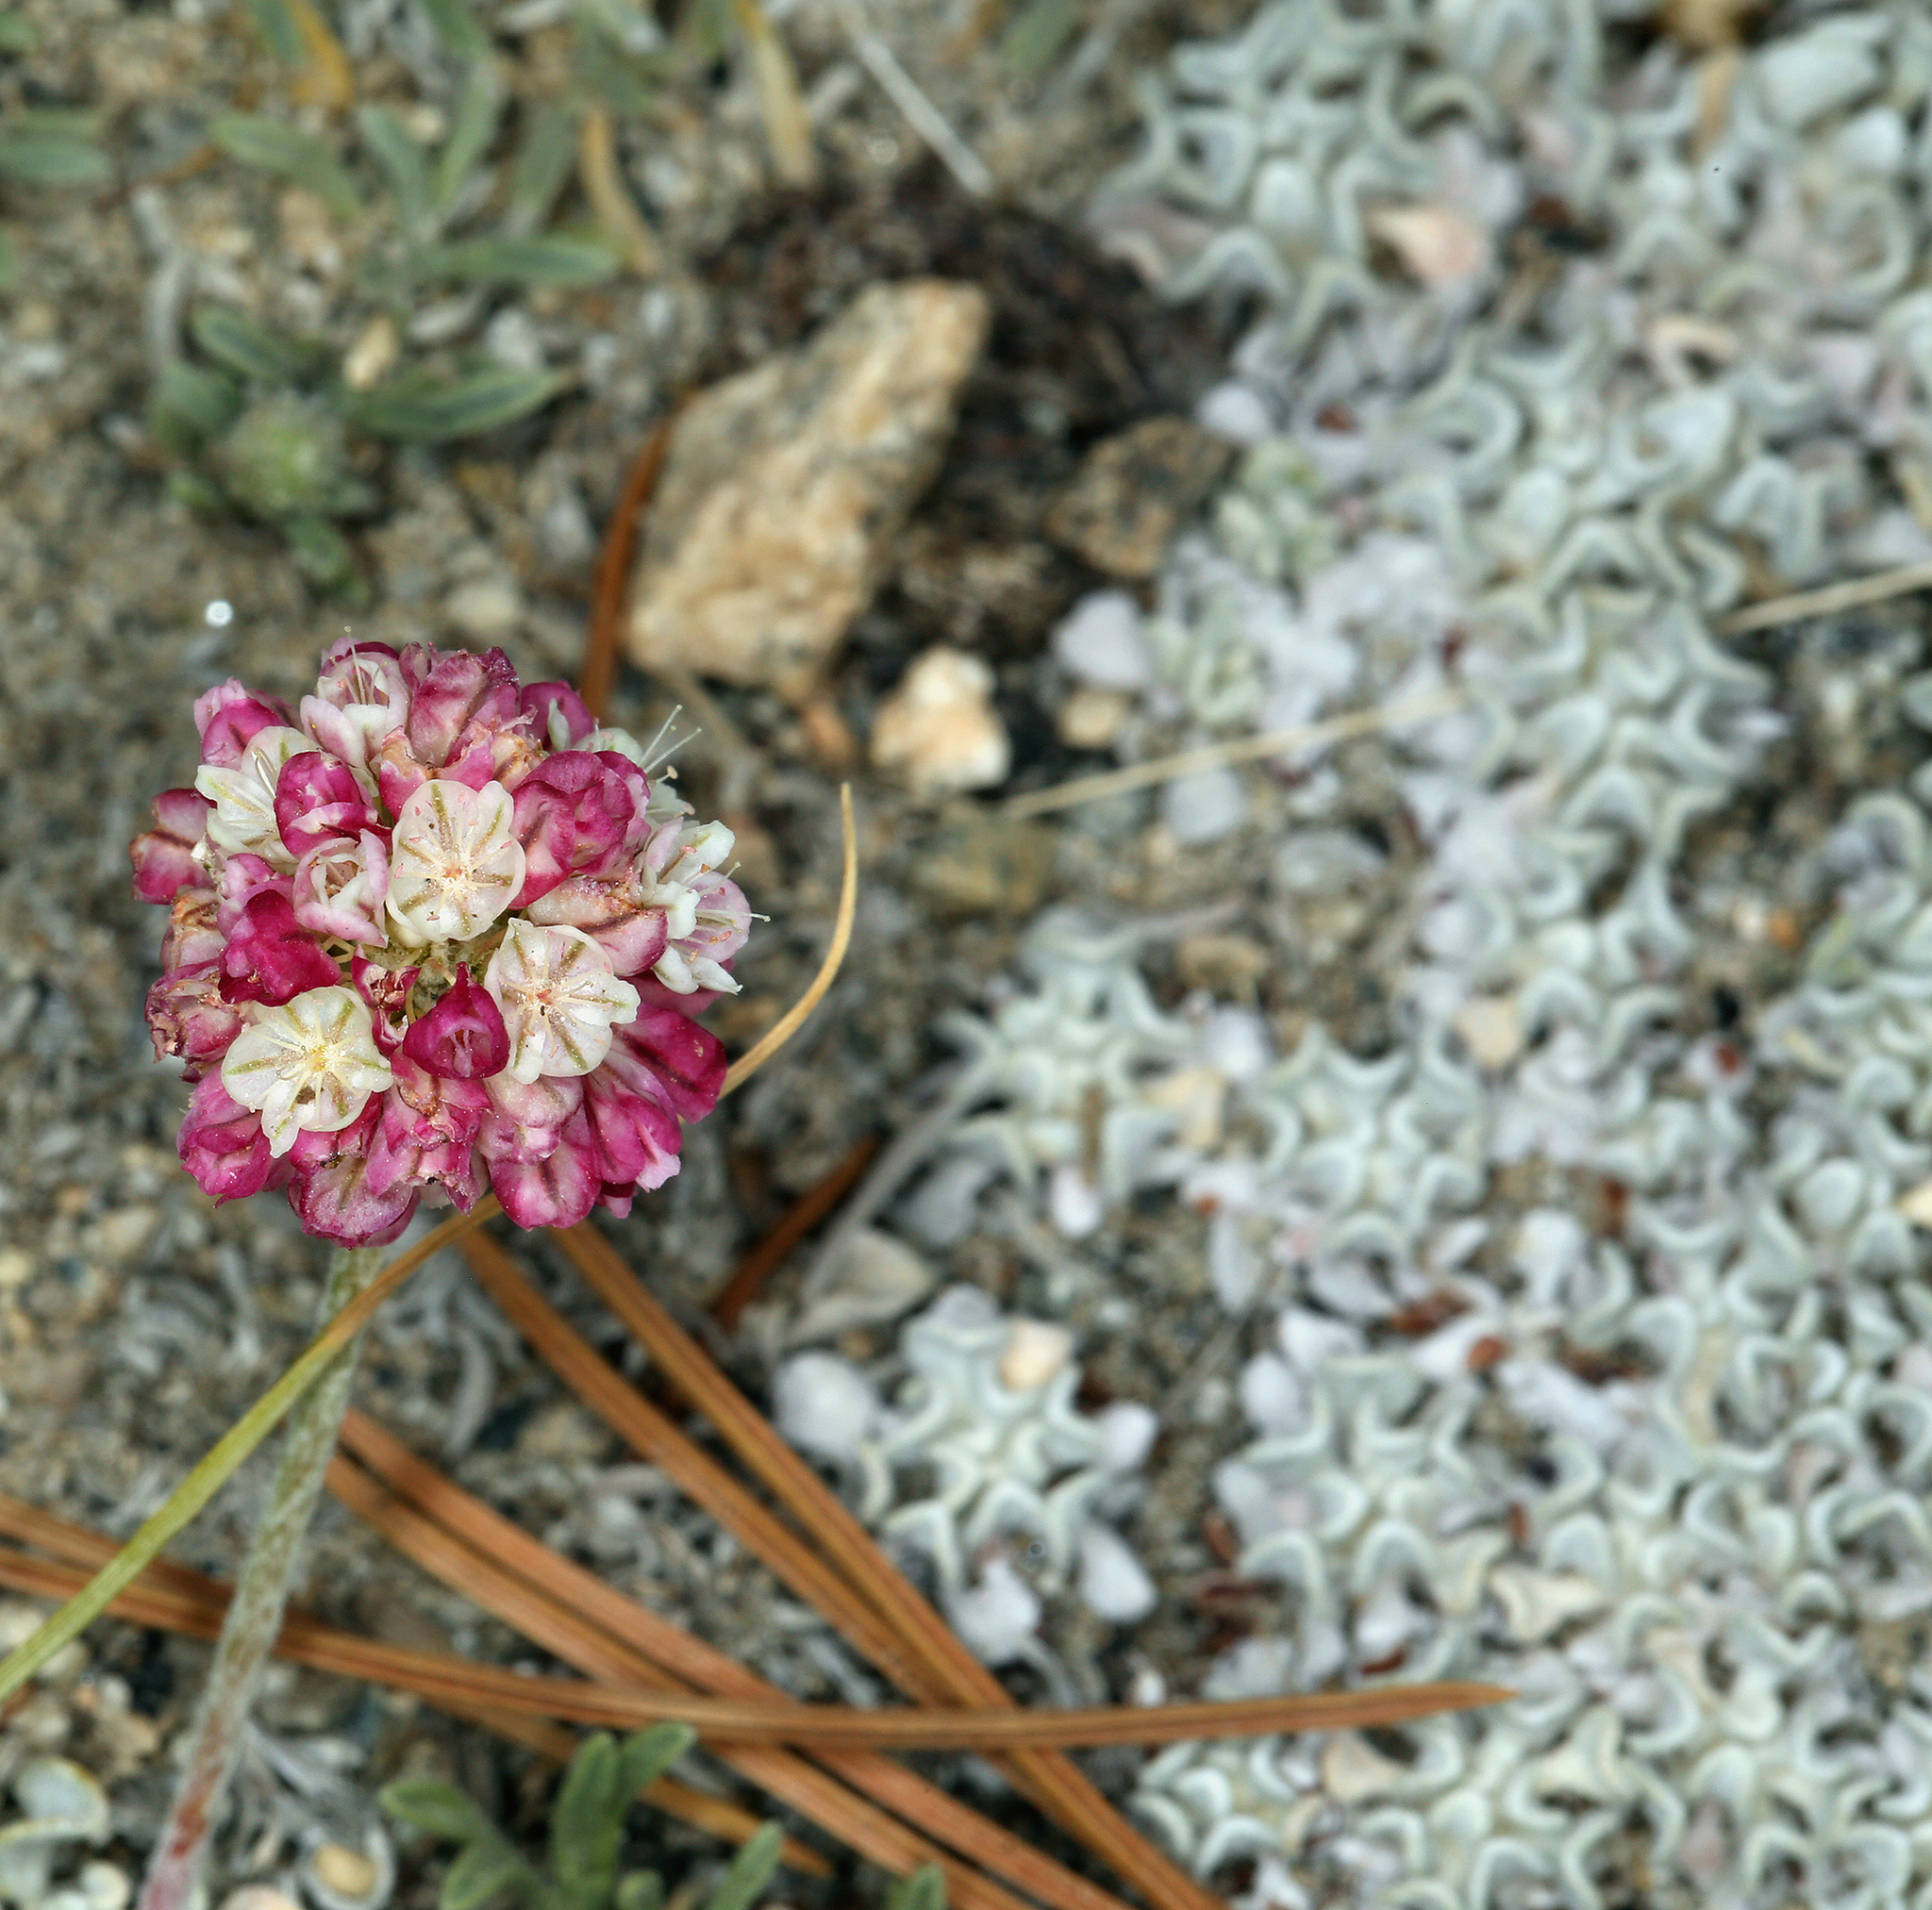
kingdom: Plantae
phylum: Tracheophyta
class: Magnoliopsida
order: Caryophyllales
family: Polygonaceae
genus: Eriogonum
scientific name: Eriogonum ovalifolium
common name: Cushion buckwheat
